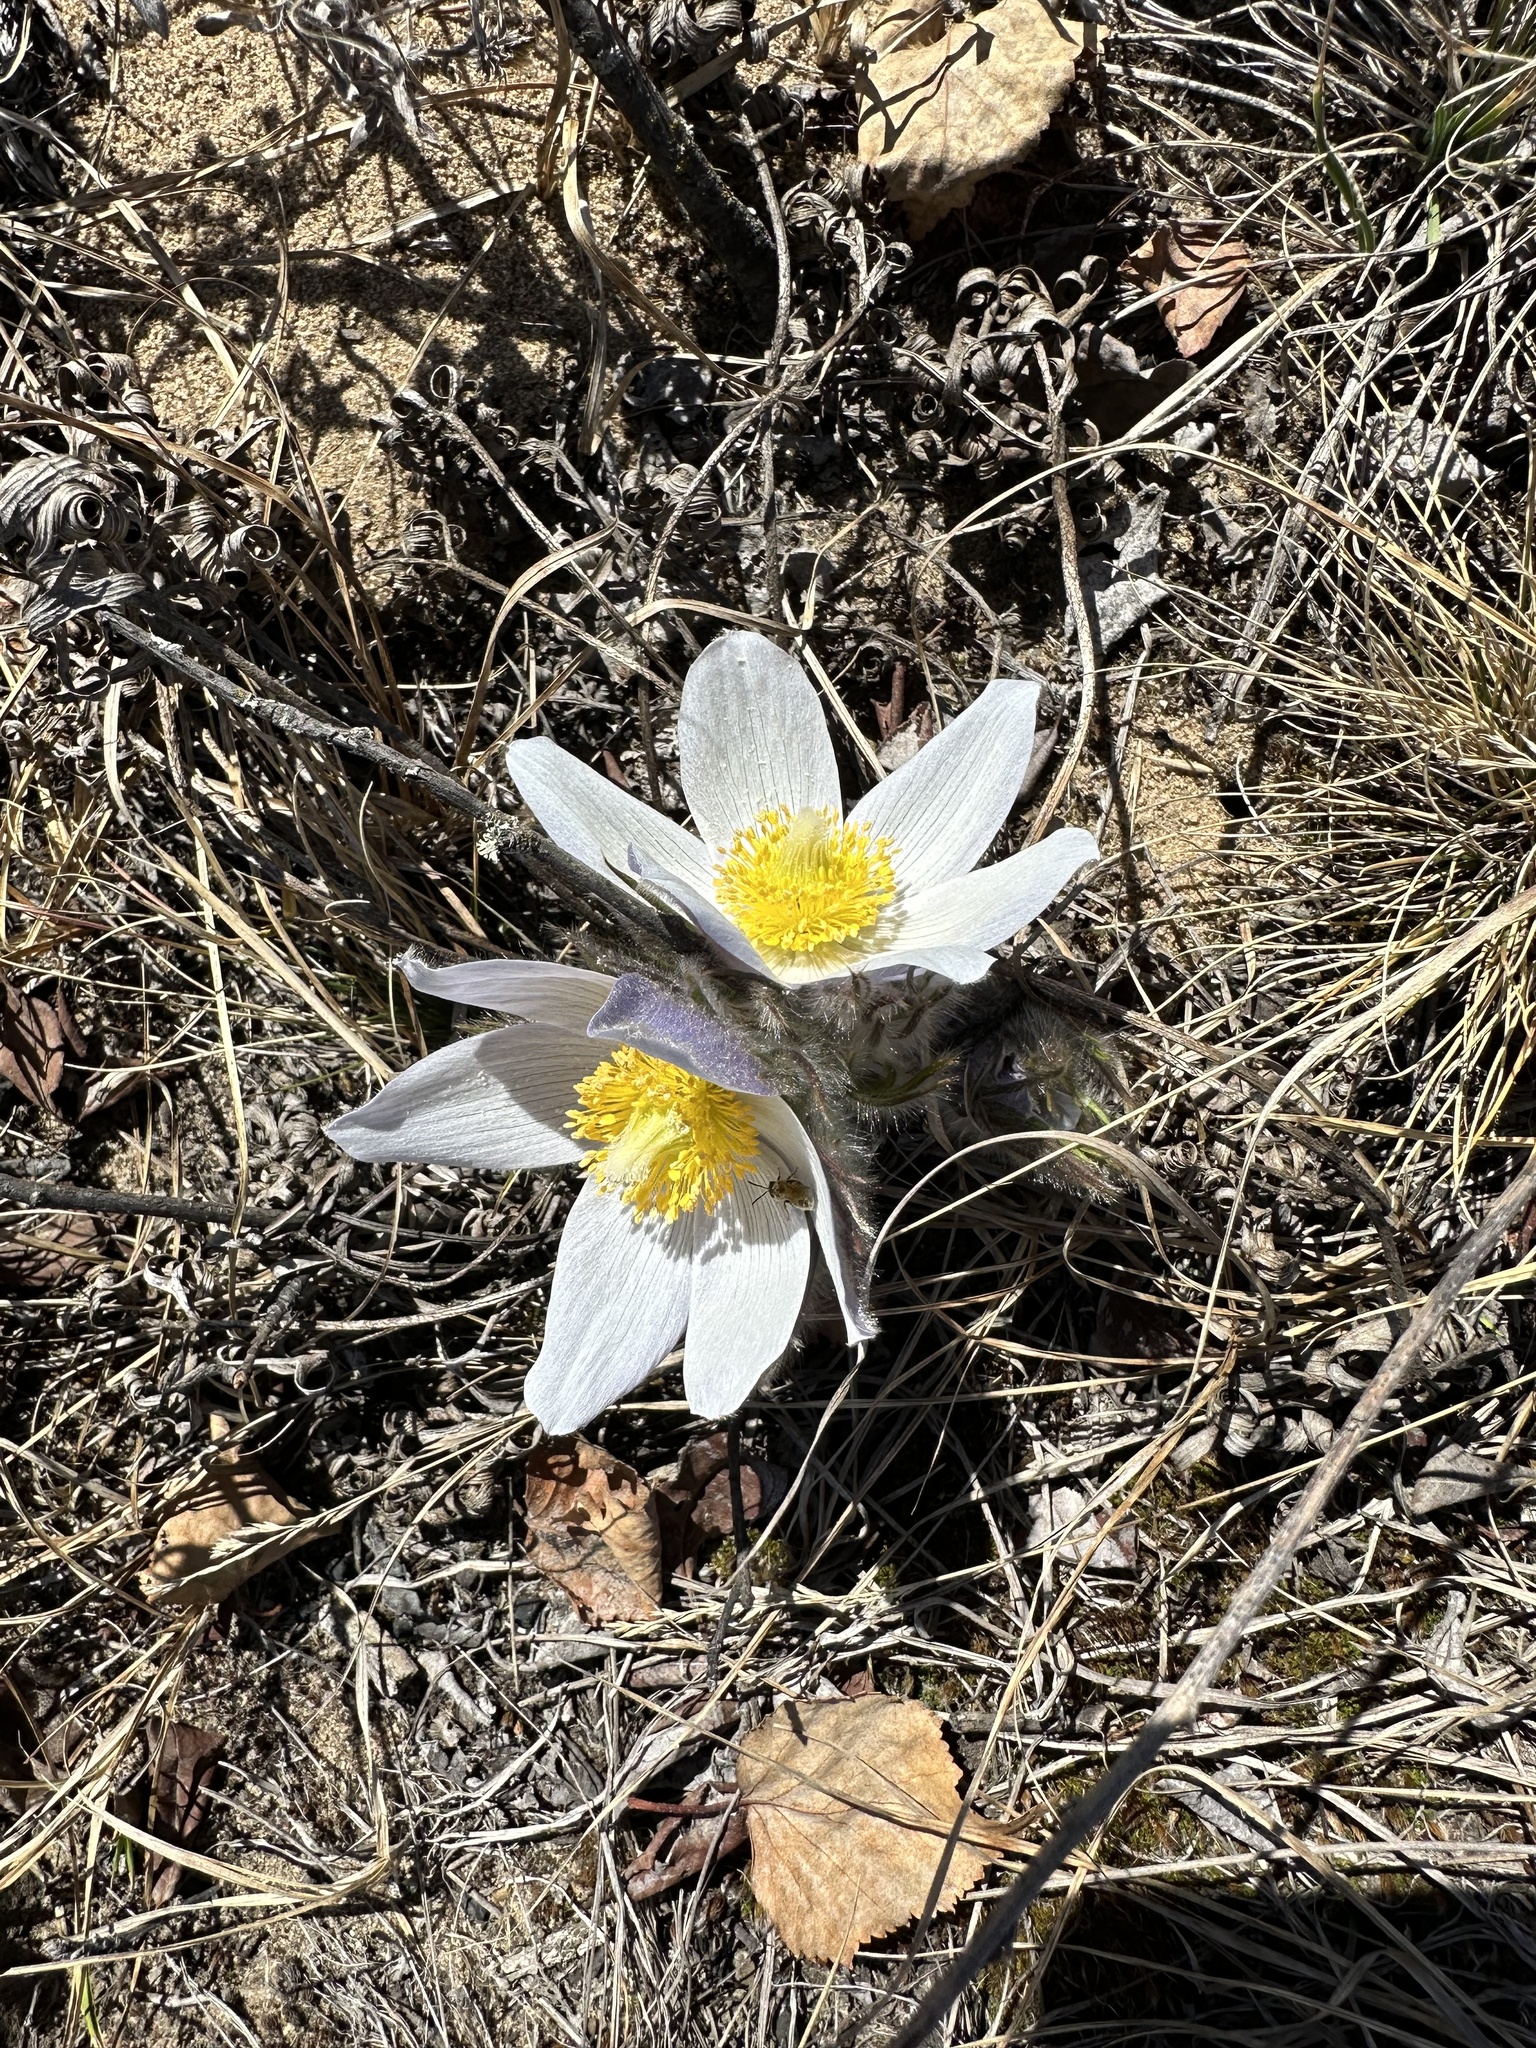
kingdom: Plantae
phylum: Tracheophyta
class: Magnoliopsida
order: Ranunculales
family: Ranunculaceae
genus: Pulsatilla
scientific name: Pulsatilla nuttalliana
